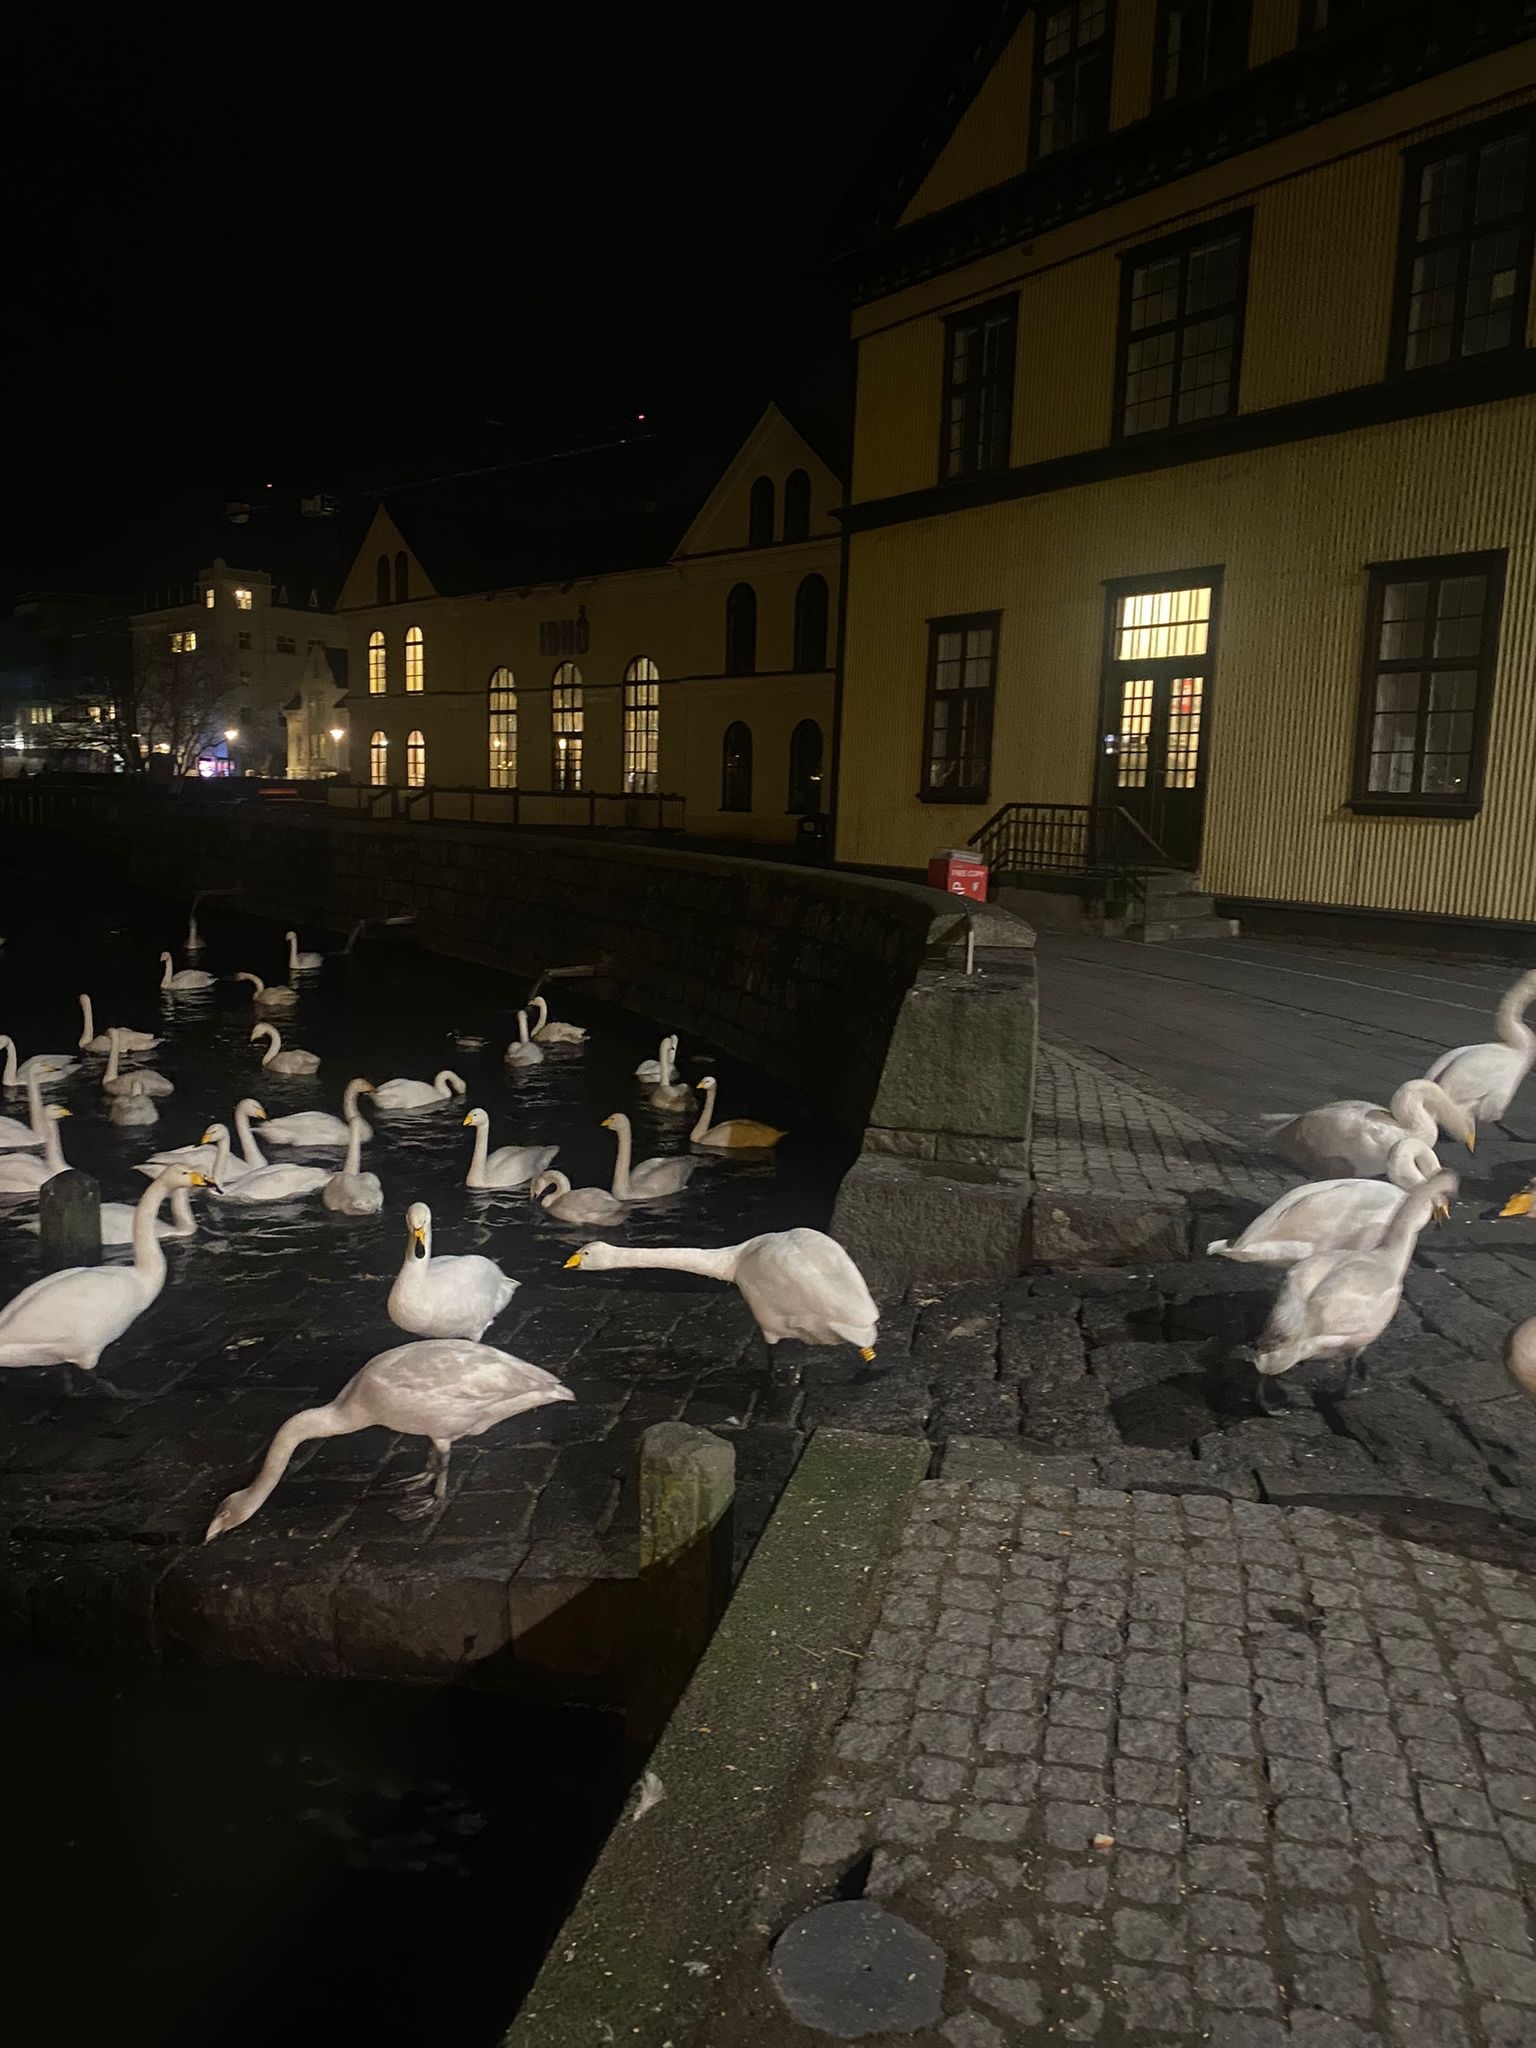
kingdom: Animalia
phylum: Chordata
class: Aves
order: Anseriformes
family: Anatidae
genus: Cygnus
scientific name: Cygnus cygnus
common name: Whooper swan
